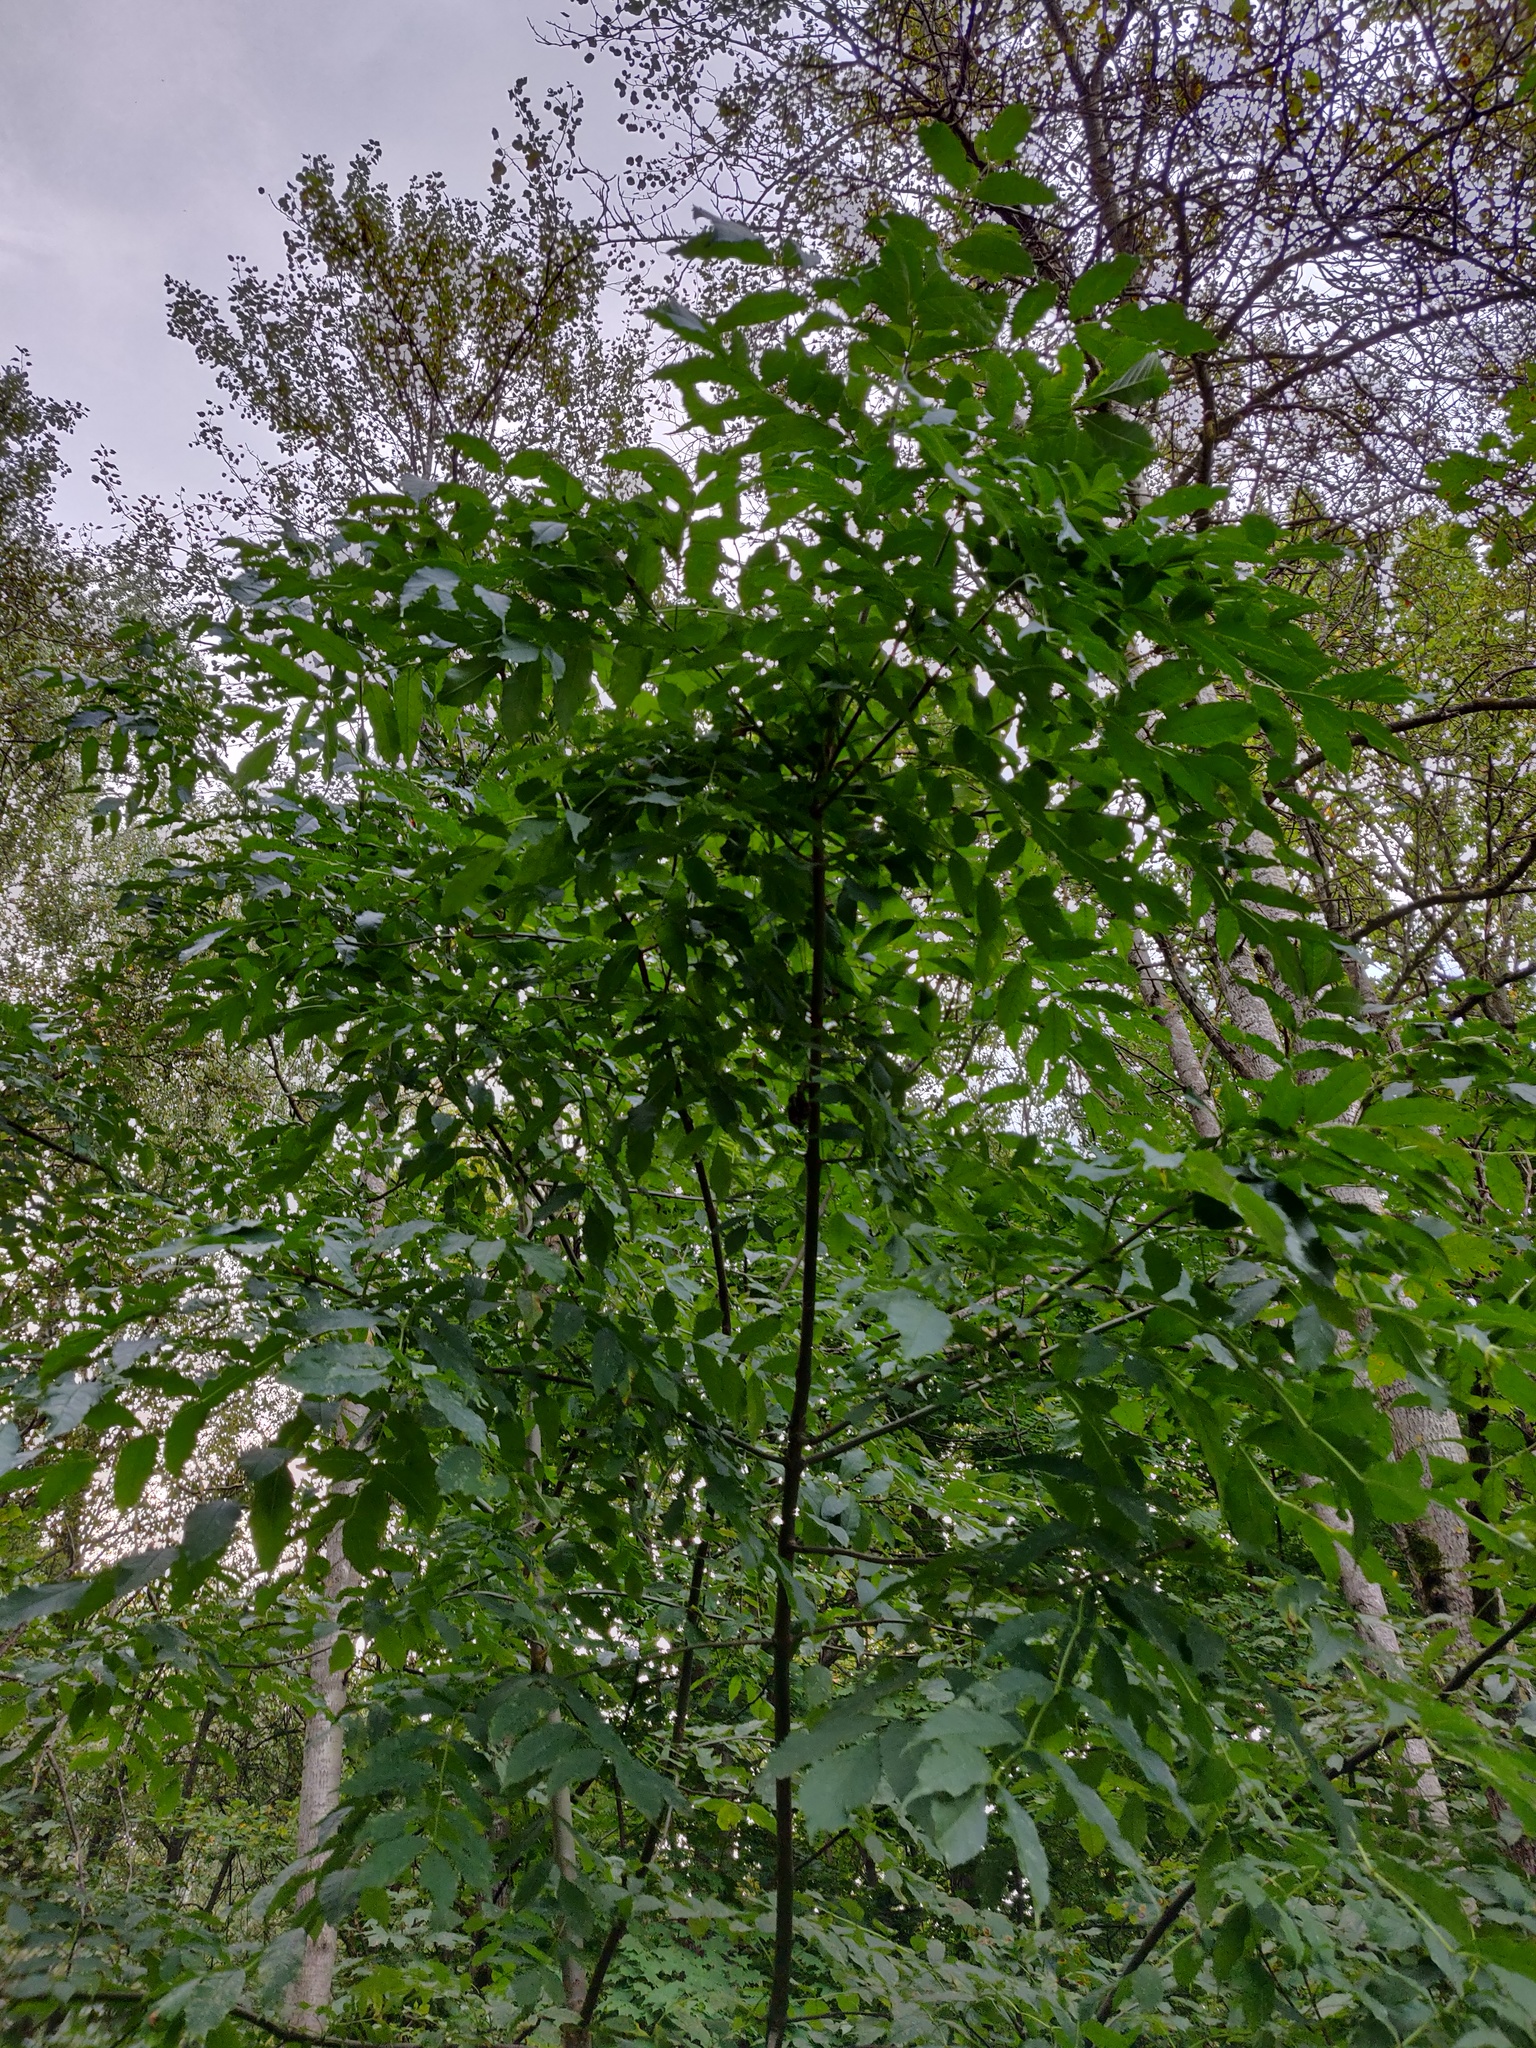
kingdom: Plantae
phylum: Tracheophyta
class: Magnoliopsida
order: Lamiales
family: Oleaceae
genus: Fraxinus
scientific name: Fraxinus excelsior
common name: European ash
